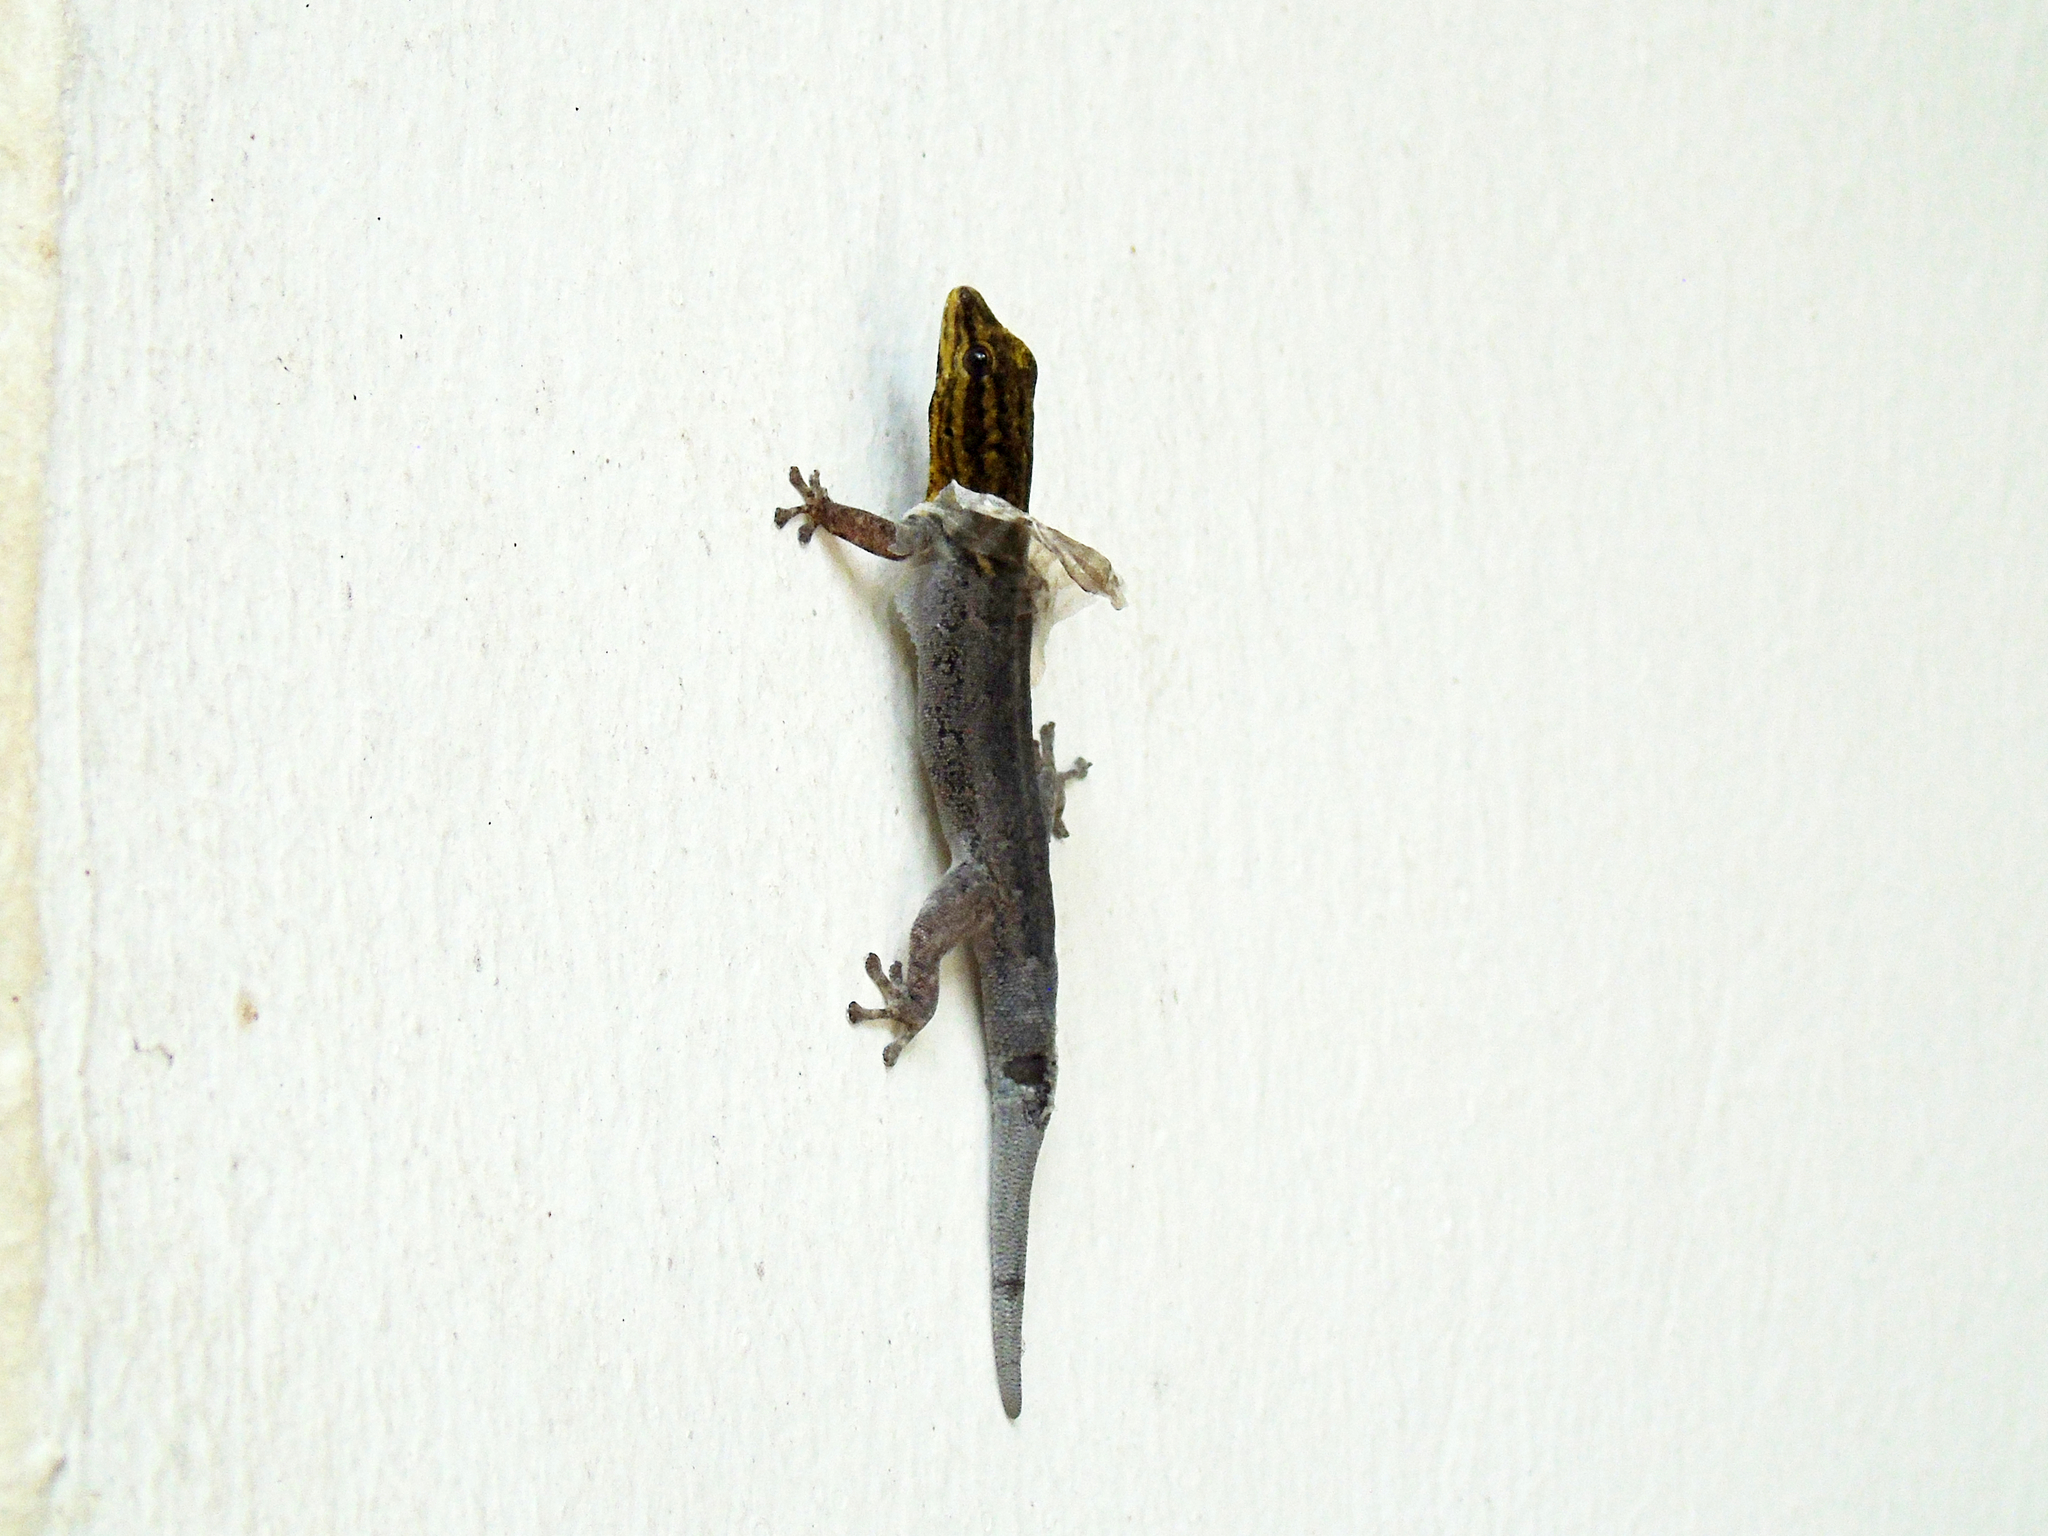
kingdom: Animalia
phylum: Chordata
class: Squamata
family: Gekkonidae
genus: Lygodactylus
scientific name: Lygodactylus picturatus
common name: Painted dwarf gecko
